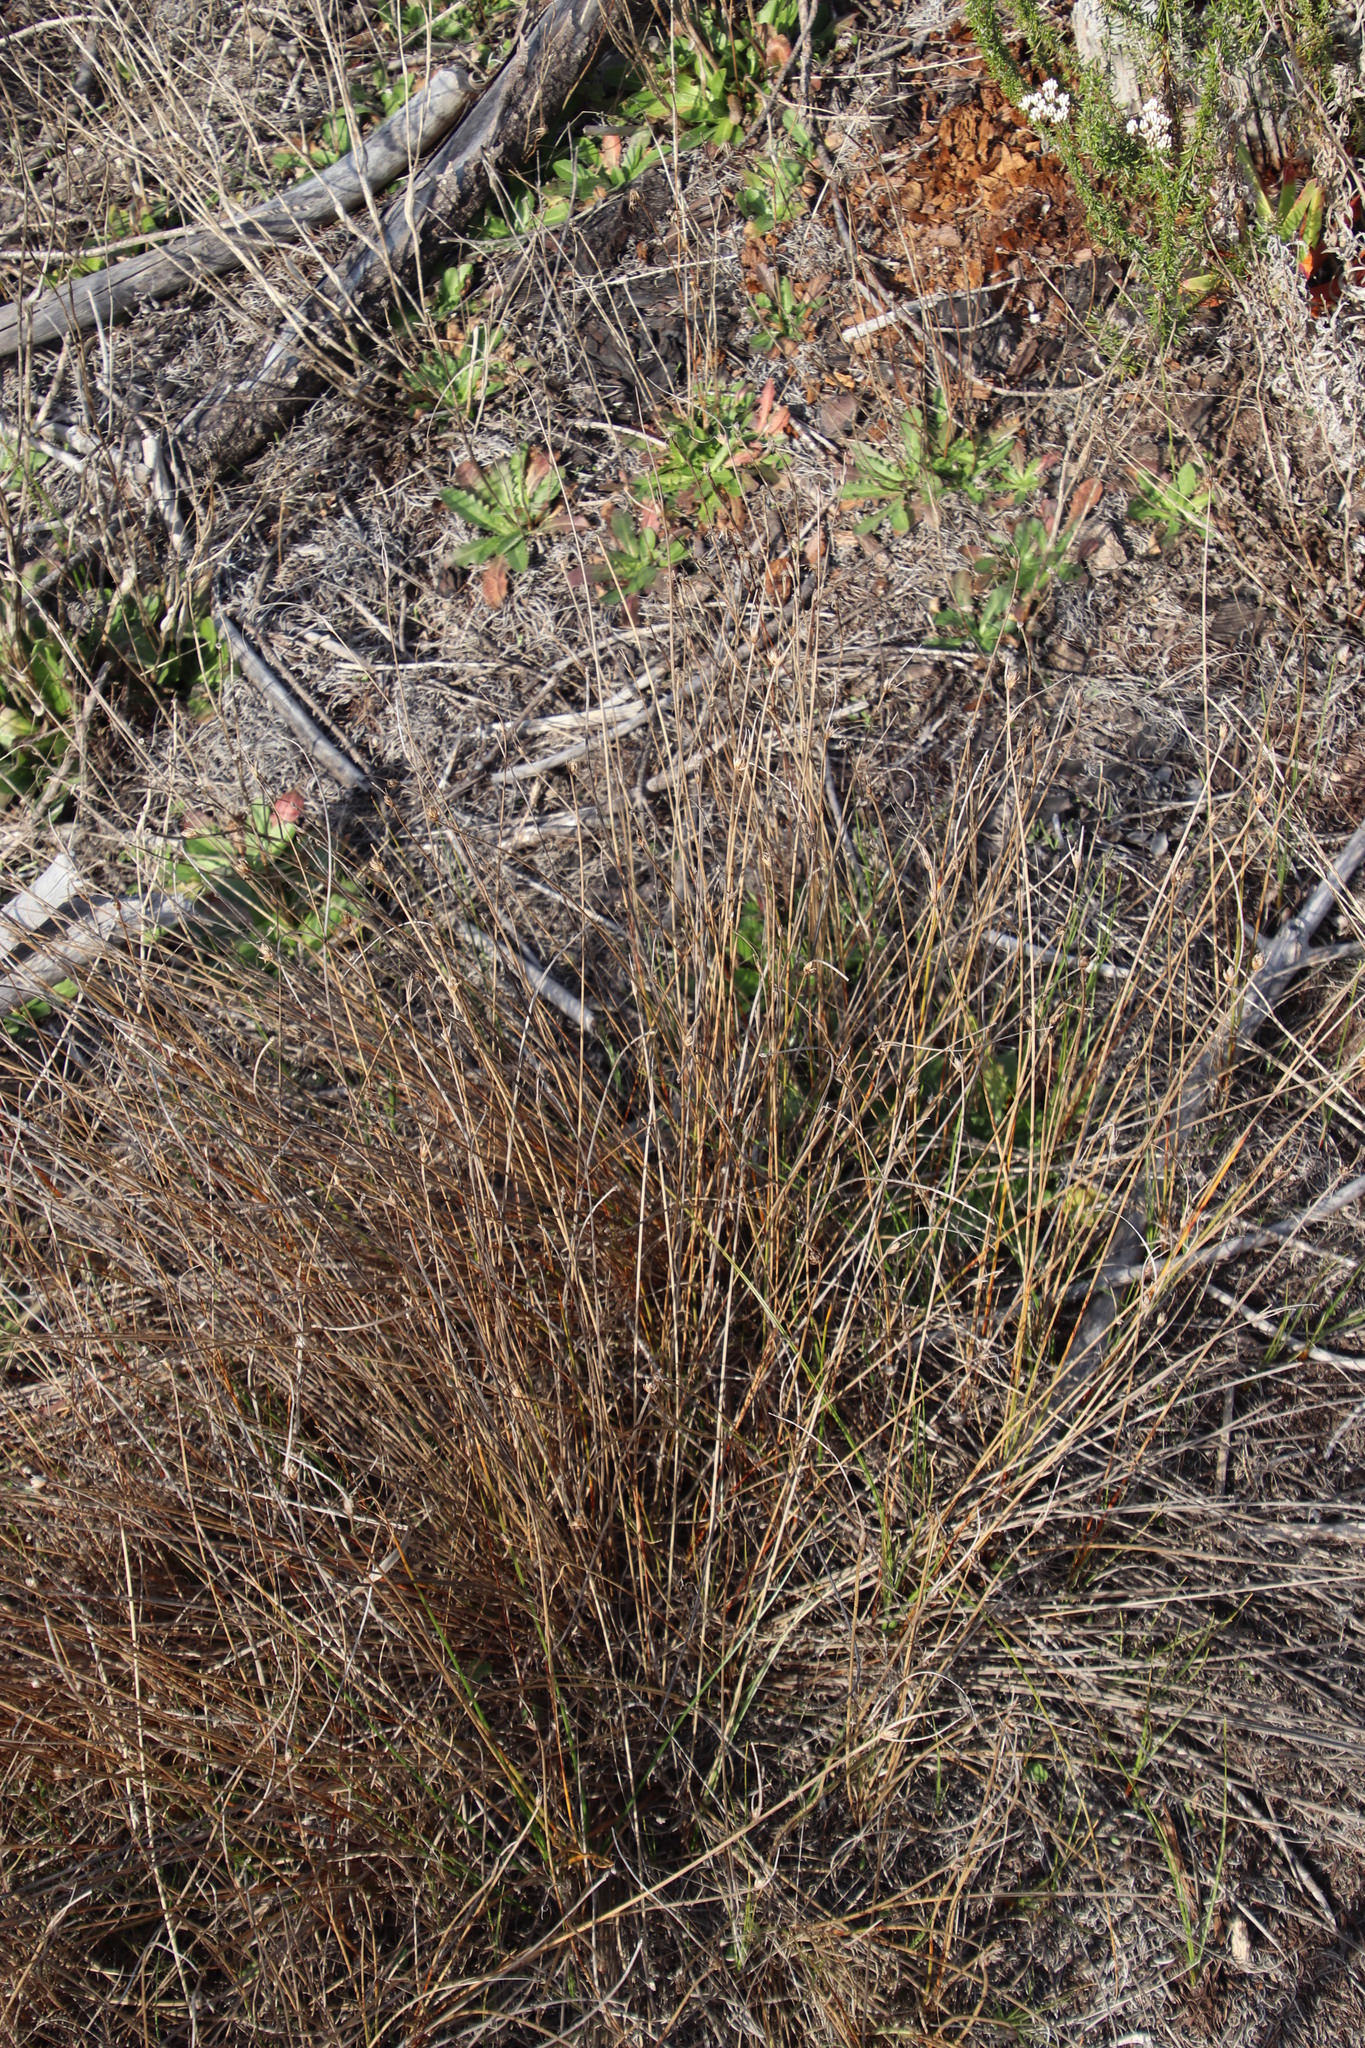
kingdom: Plantae
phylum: Tracheophyta
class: Liliopsida
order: Poales
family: Cyperaceae
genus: Ficinia
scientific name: Ficinia pallens
